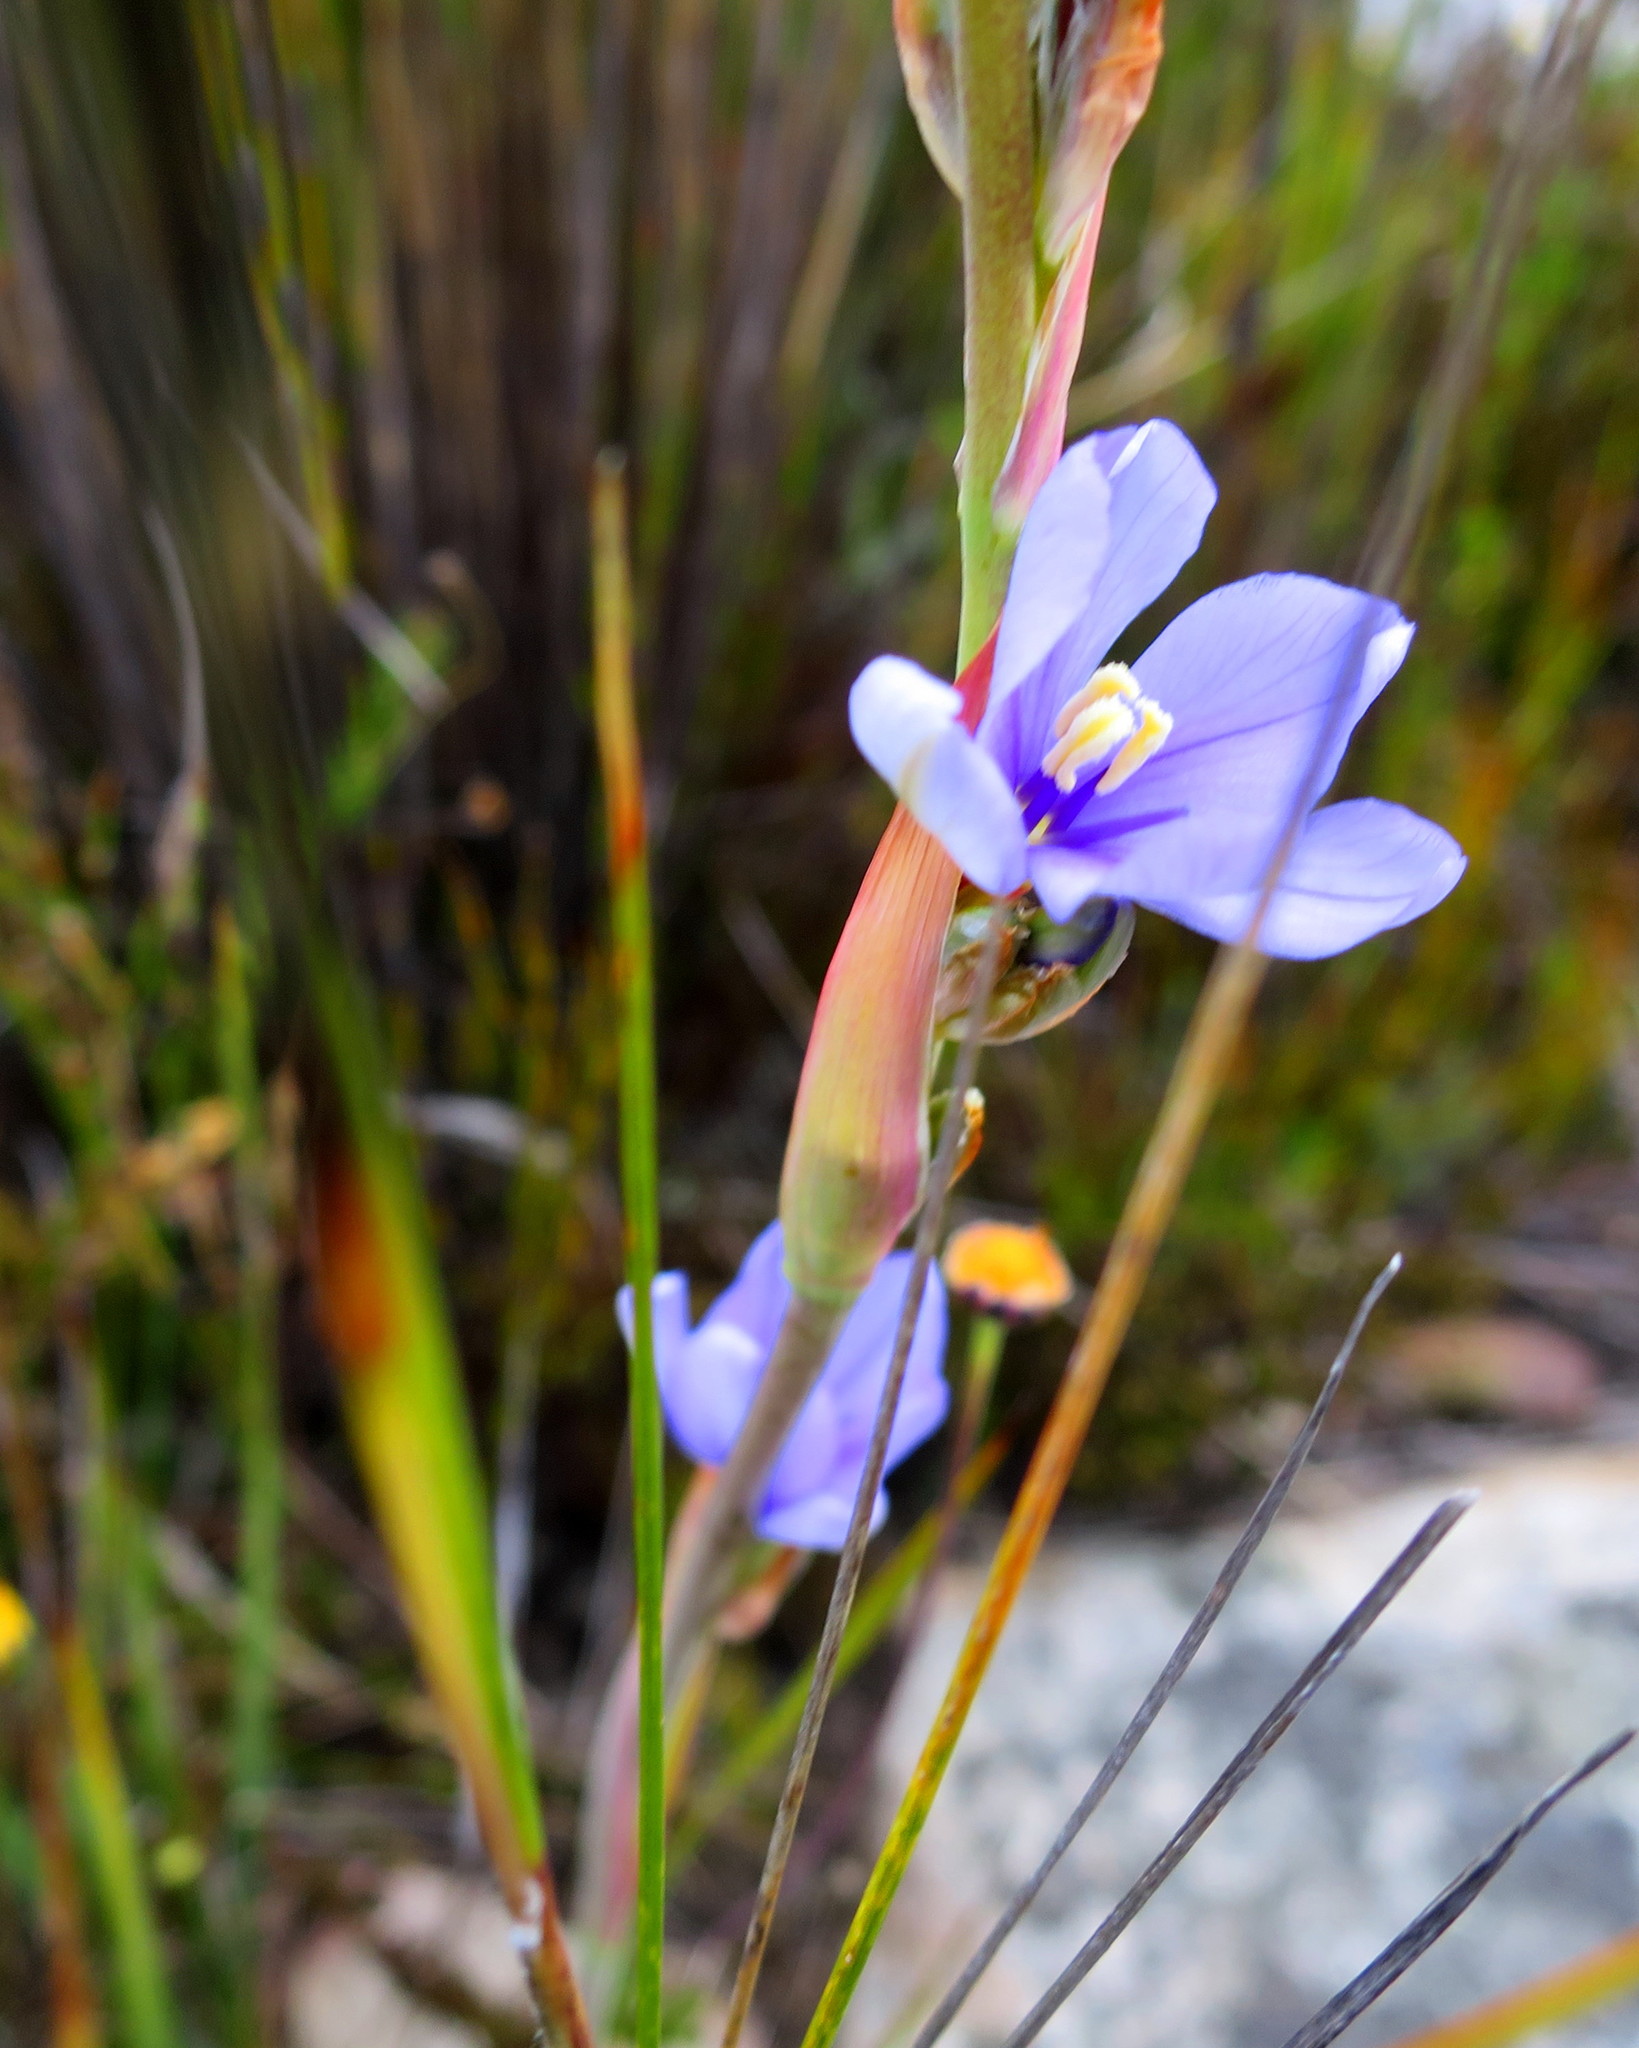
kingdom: Plantae
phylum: Tracheophyta
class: Liliopsida
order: Asparagales
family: Iridaceae
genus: Aristea
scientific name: Aristea racemosa
